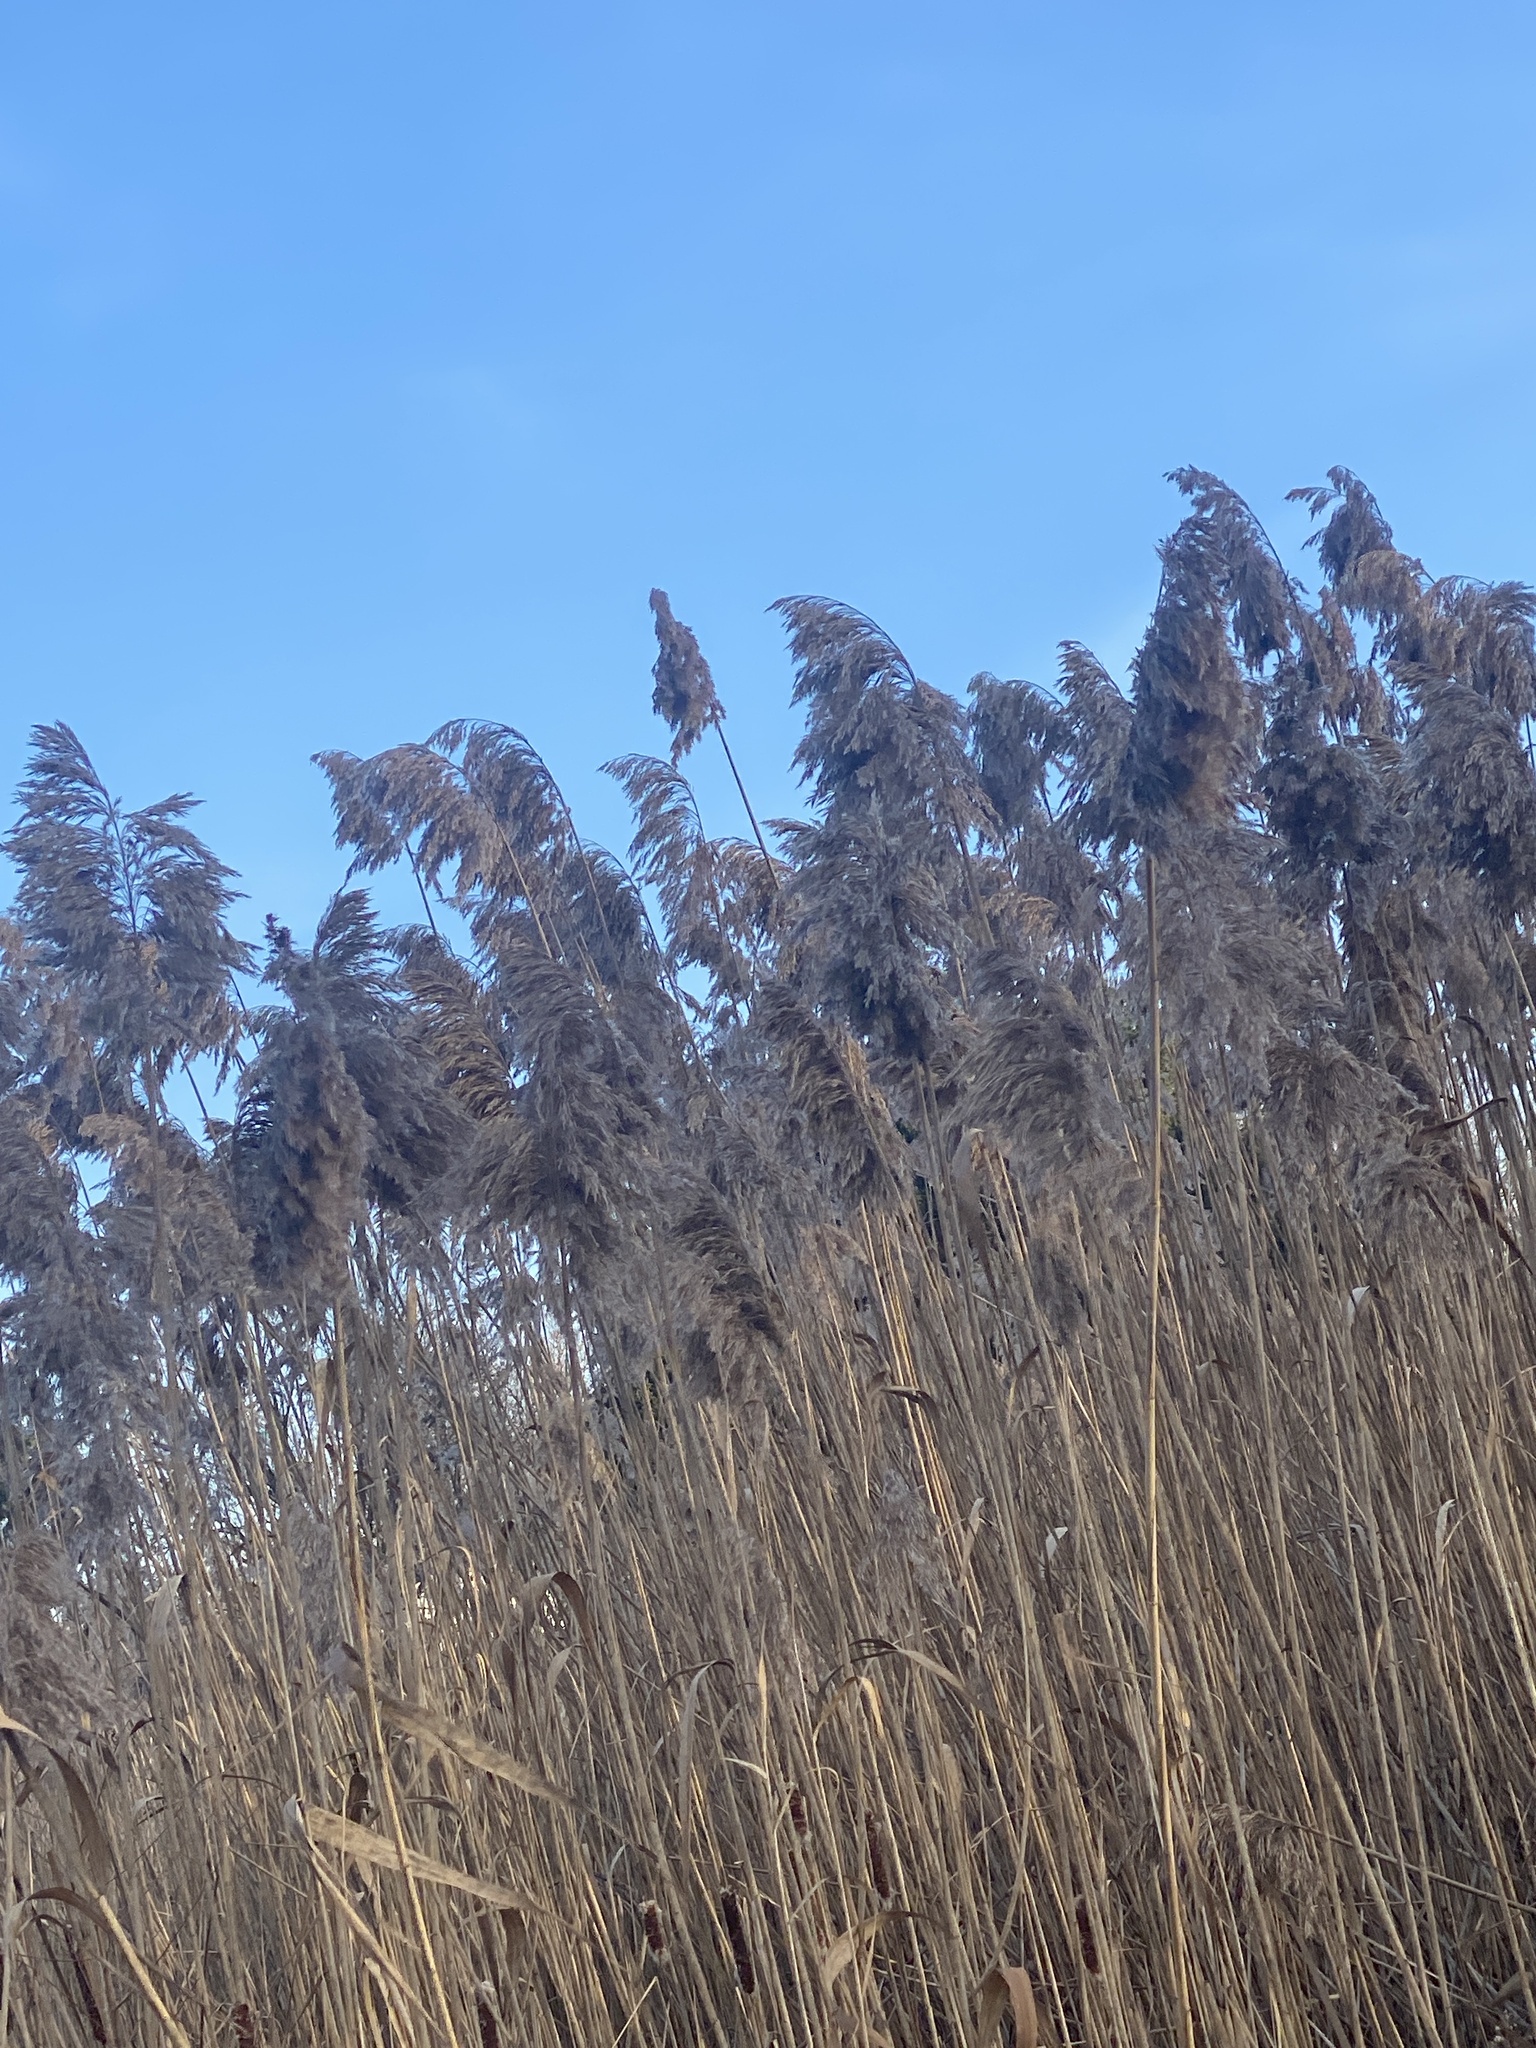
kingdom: Plantae
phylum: Tracheophyta
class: Liliopsida
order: Poales
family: Poaceae
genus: Phragmites
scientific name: Phragmites australis
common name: Common reed
